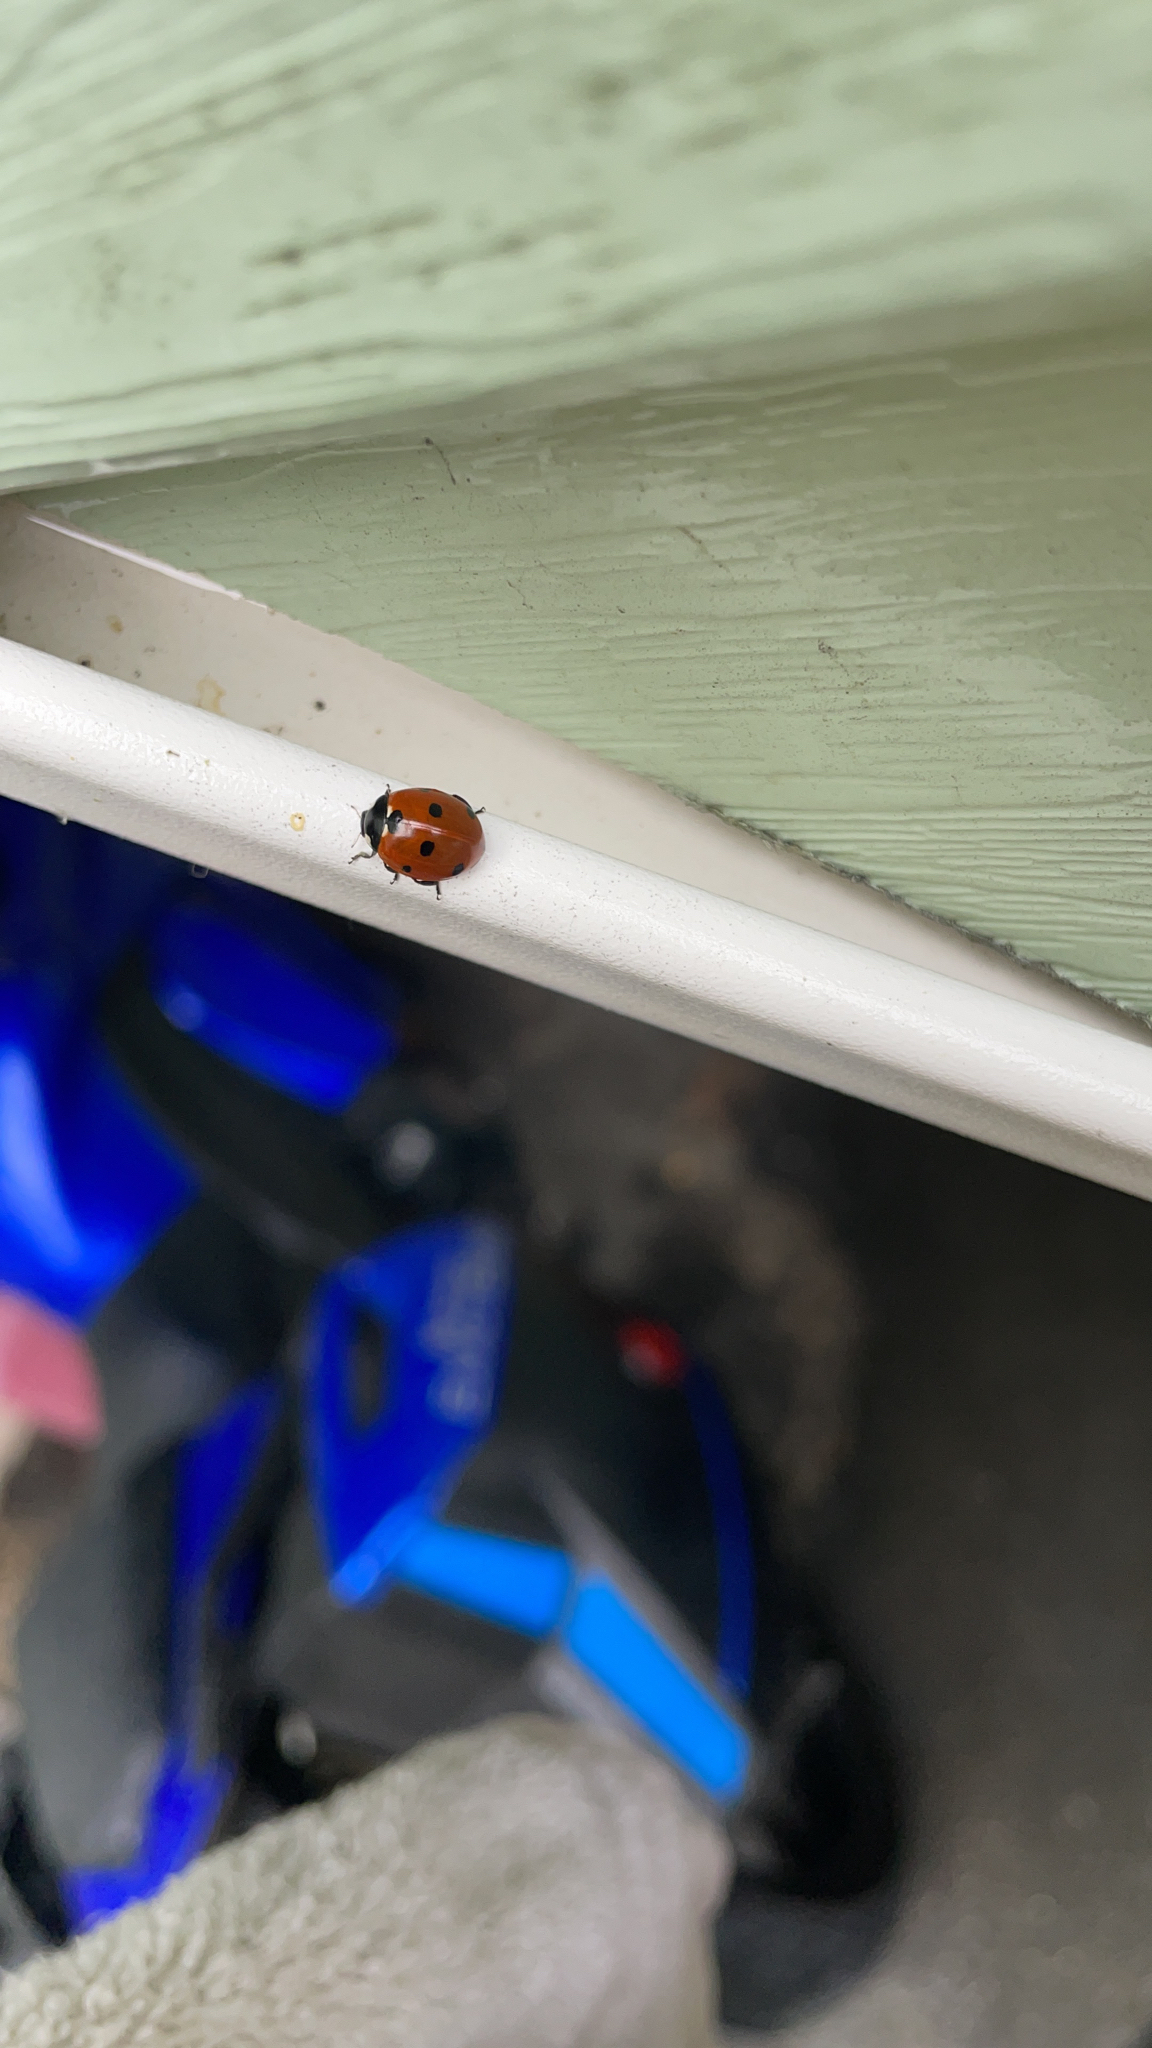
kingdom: Animalia
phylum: Arthropoda
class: Insecta
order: Coleoptera
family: Coccinellidae
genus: Coccinella
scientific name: Coccinella septempunctata
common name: Sevenspotted lady beetle
